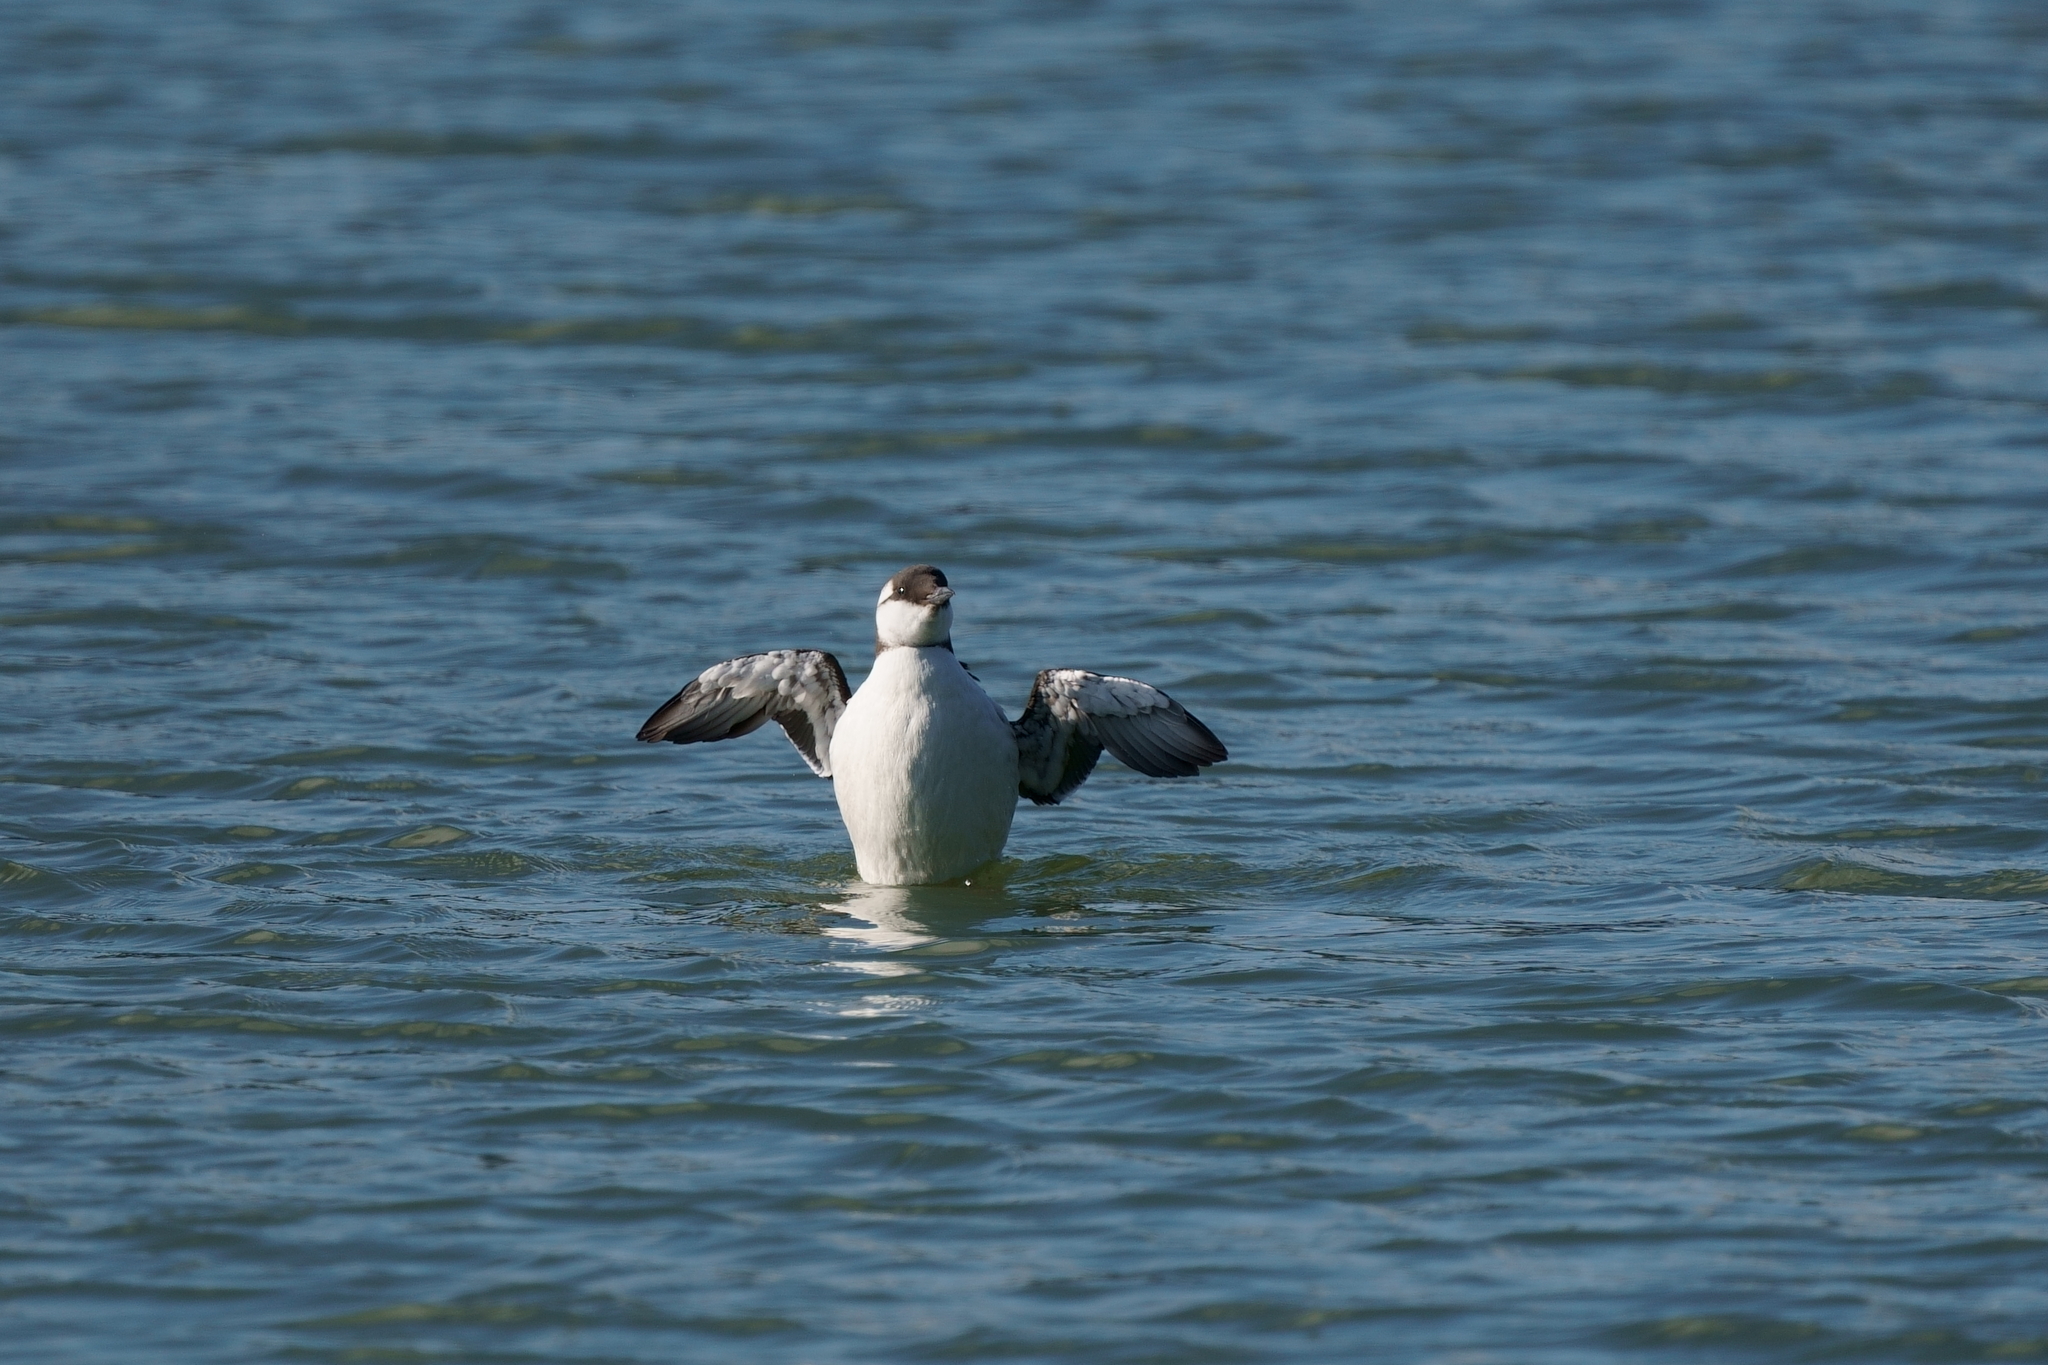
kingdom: Animalia
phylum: Chordata
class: Aves
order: Charadriiformes
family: Alcidae
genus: Uria
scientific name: Uria aalge
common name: Common murre
